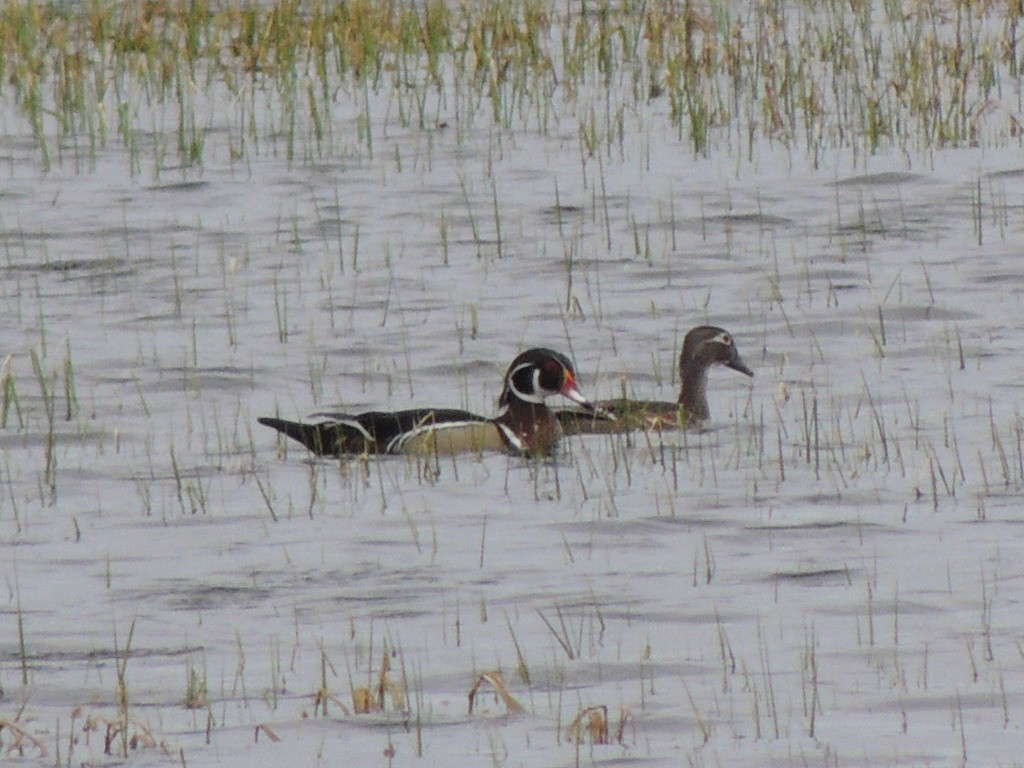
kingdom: Animalia
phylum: Chordata
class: Aves
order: Anseriformes
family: Anatidae
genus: Aix
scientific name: Aix sponsa
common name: Wood duck
